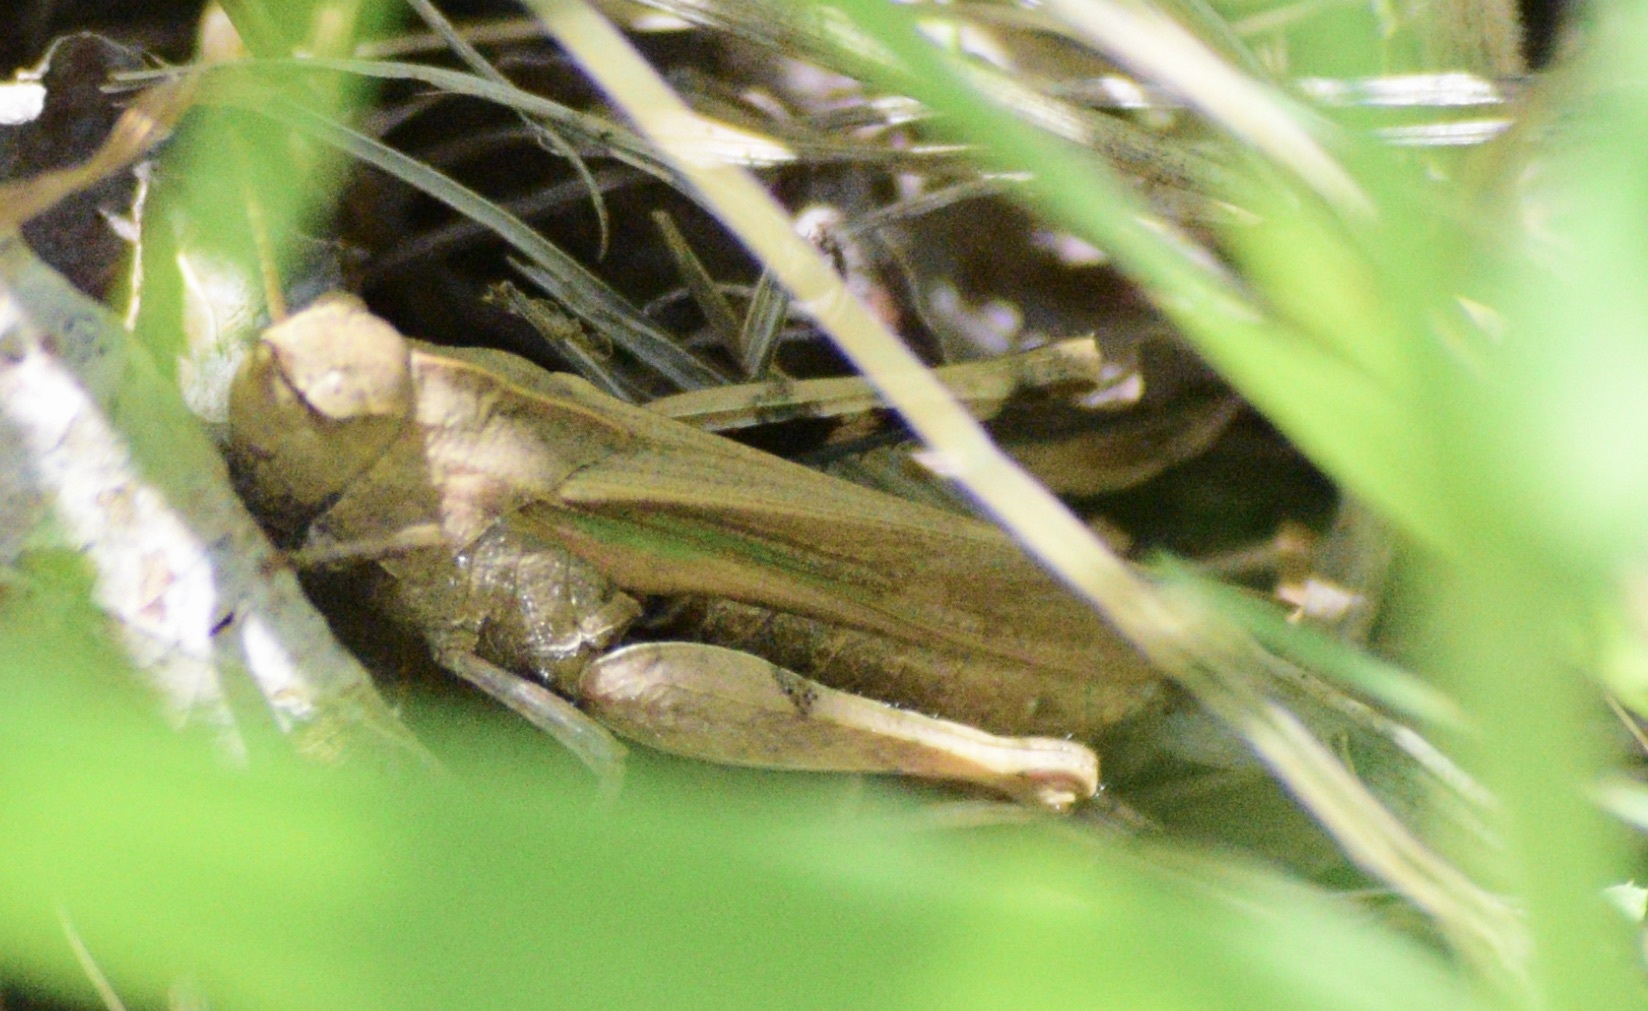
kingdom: Animalia
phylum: Arthropoda
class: Insecta
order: Orthoptera
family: Acrididae
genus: Chortophaga
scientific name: Chortophaga viridifasciata
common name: Green-striped grasshopper
